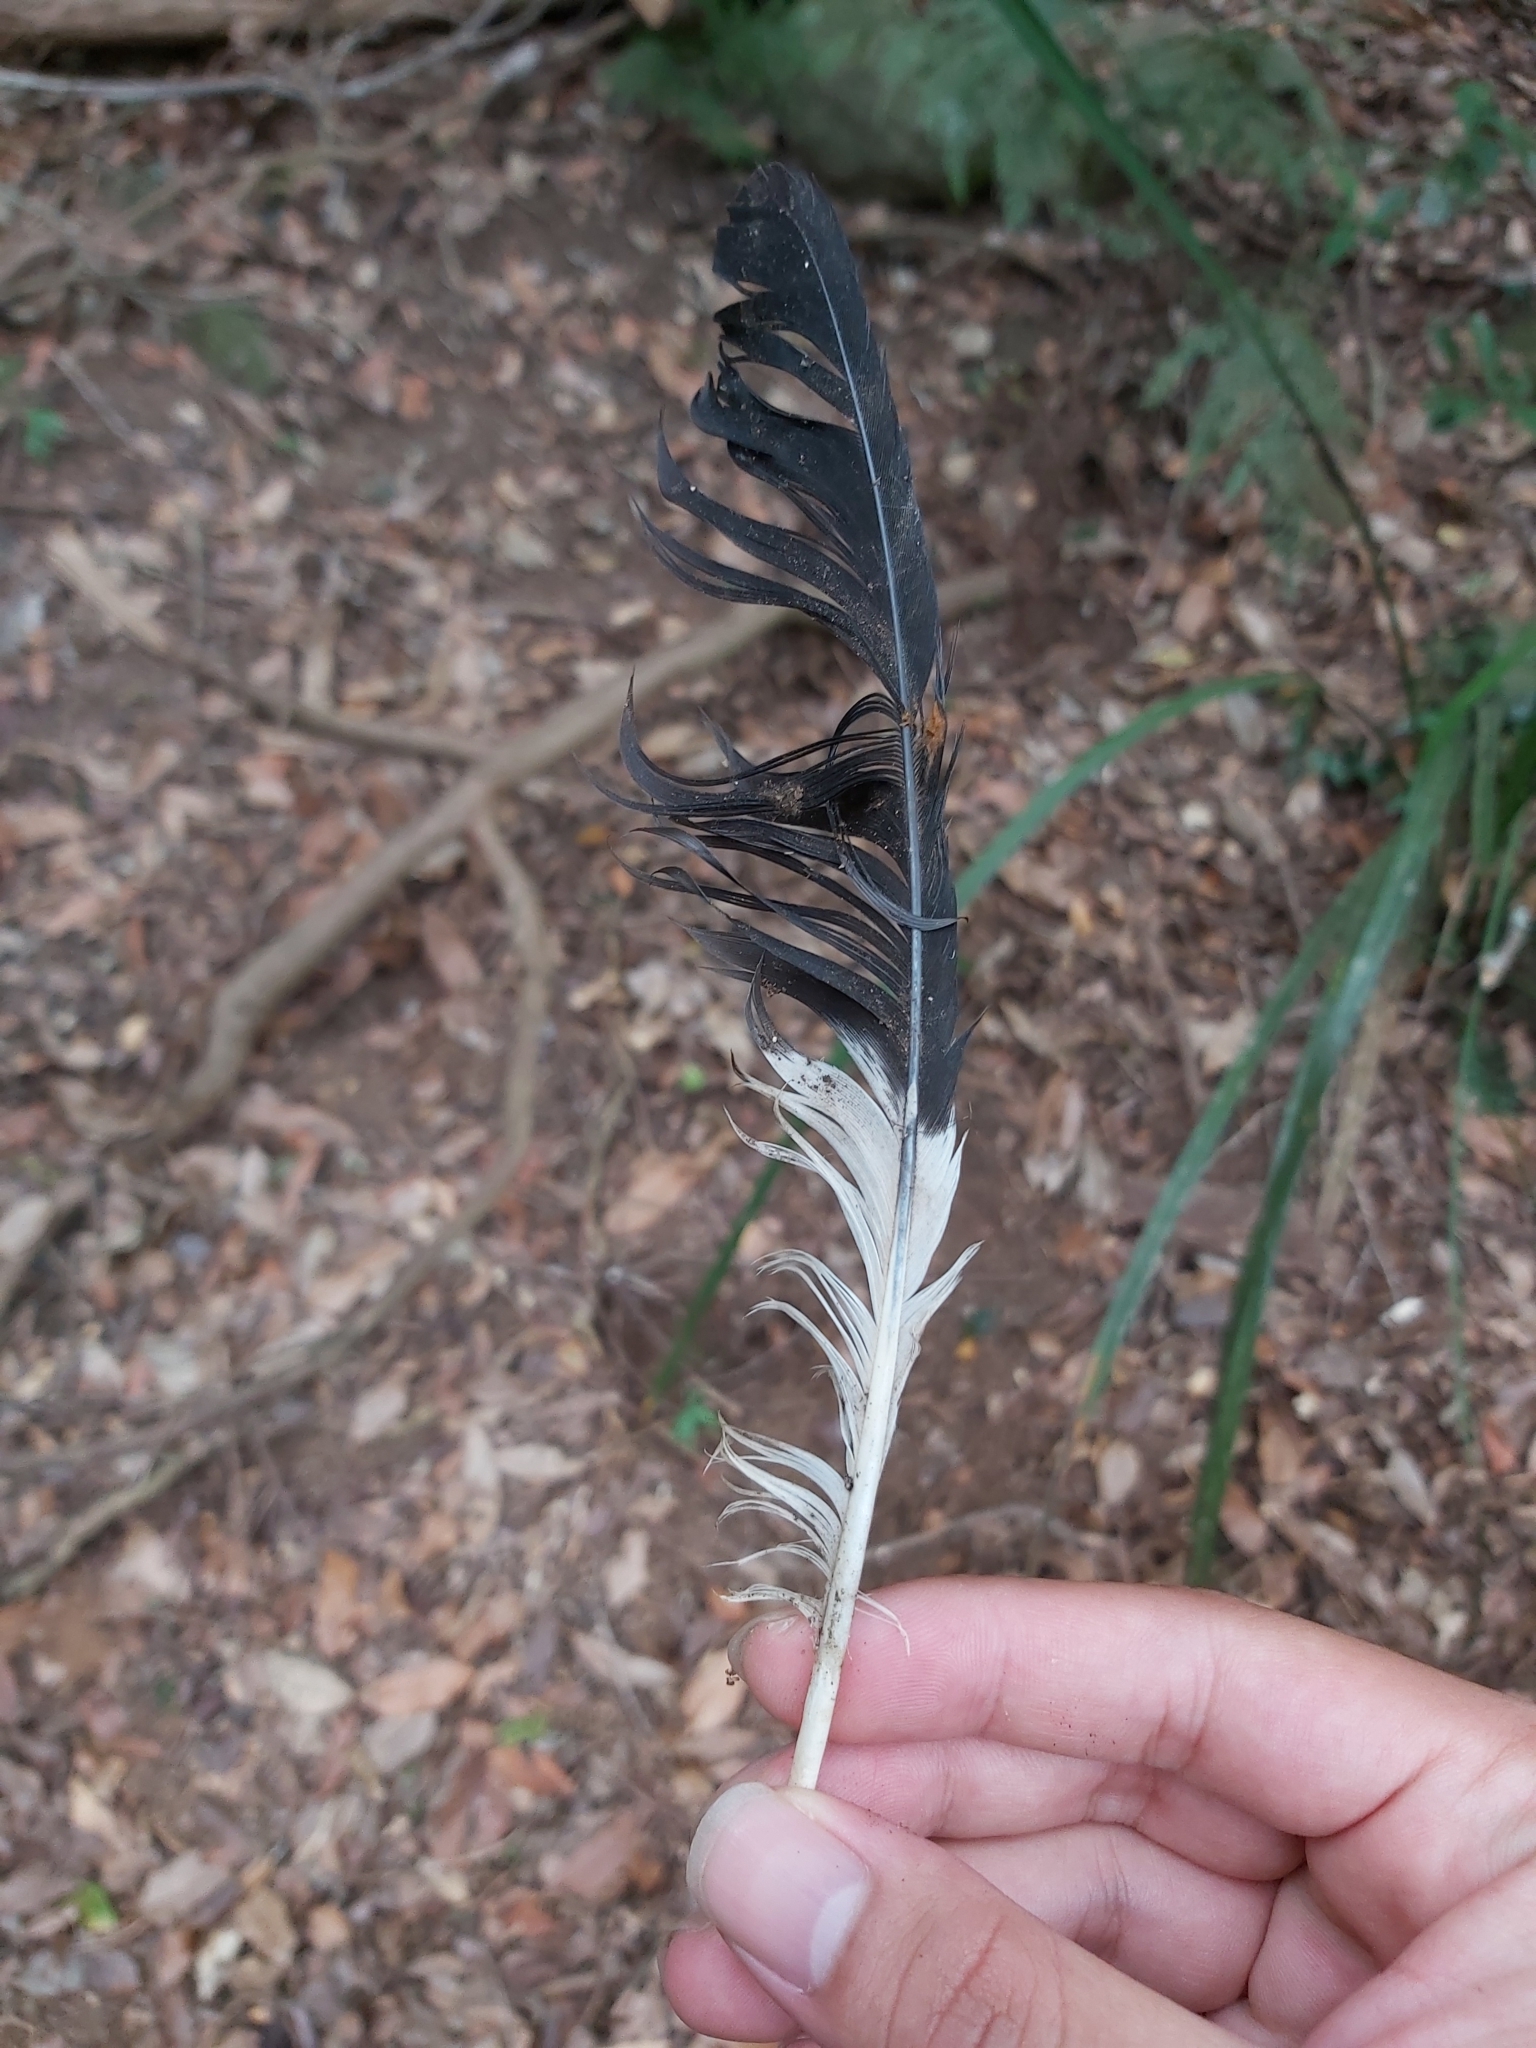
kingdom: Animalia
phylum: Chordata
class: Aves
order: Passeriformes
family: Cracticidae
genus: Strepera
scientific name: Strepera graculina
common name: Pied currawong
